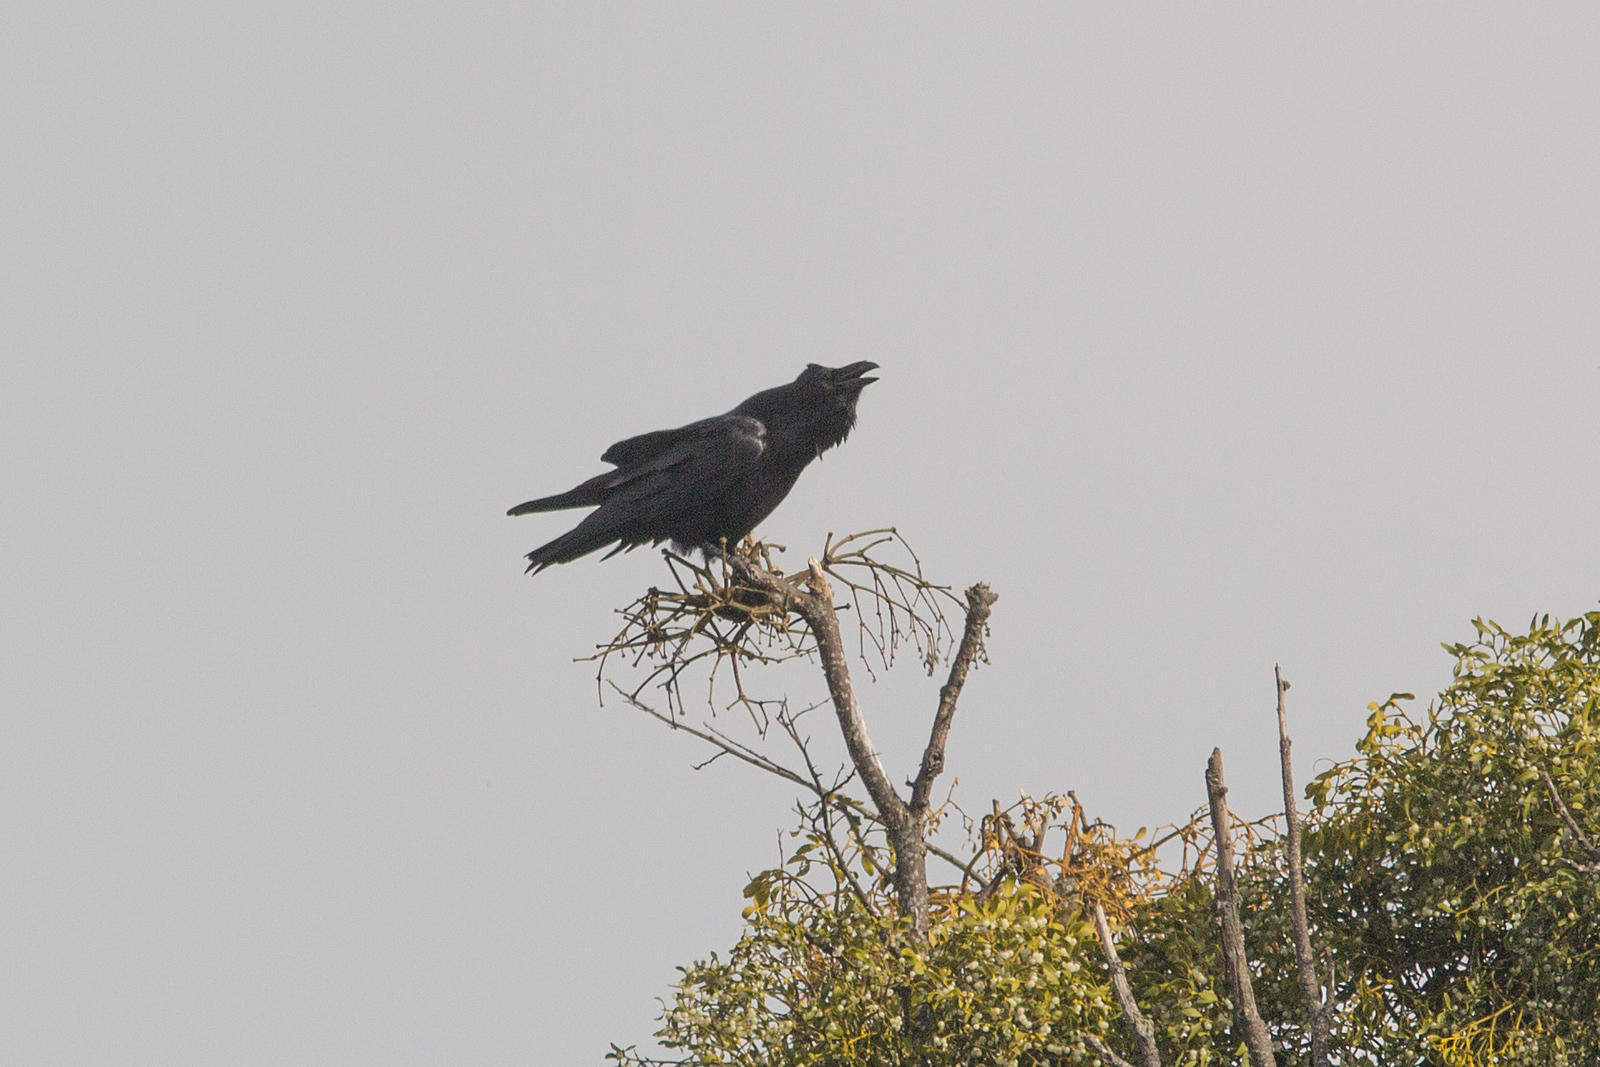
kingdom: Animalia
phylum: Chordata
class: Aves
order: Passeriformes
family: Corvidae
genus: Corvus
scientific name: Corvus corax
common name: Common raven
